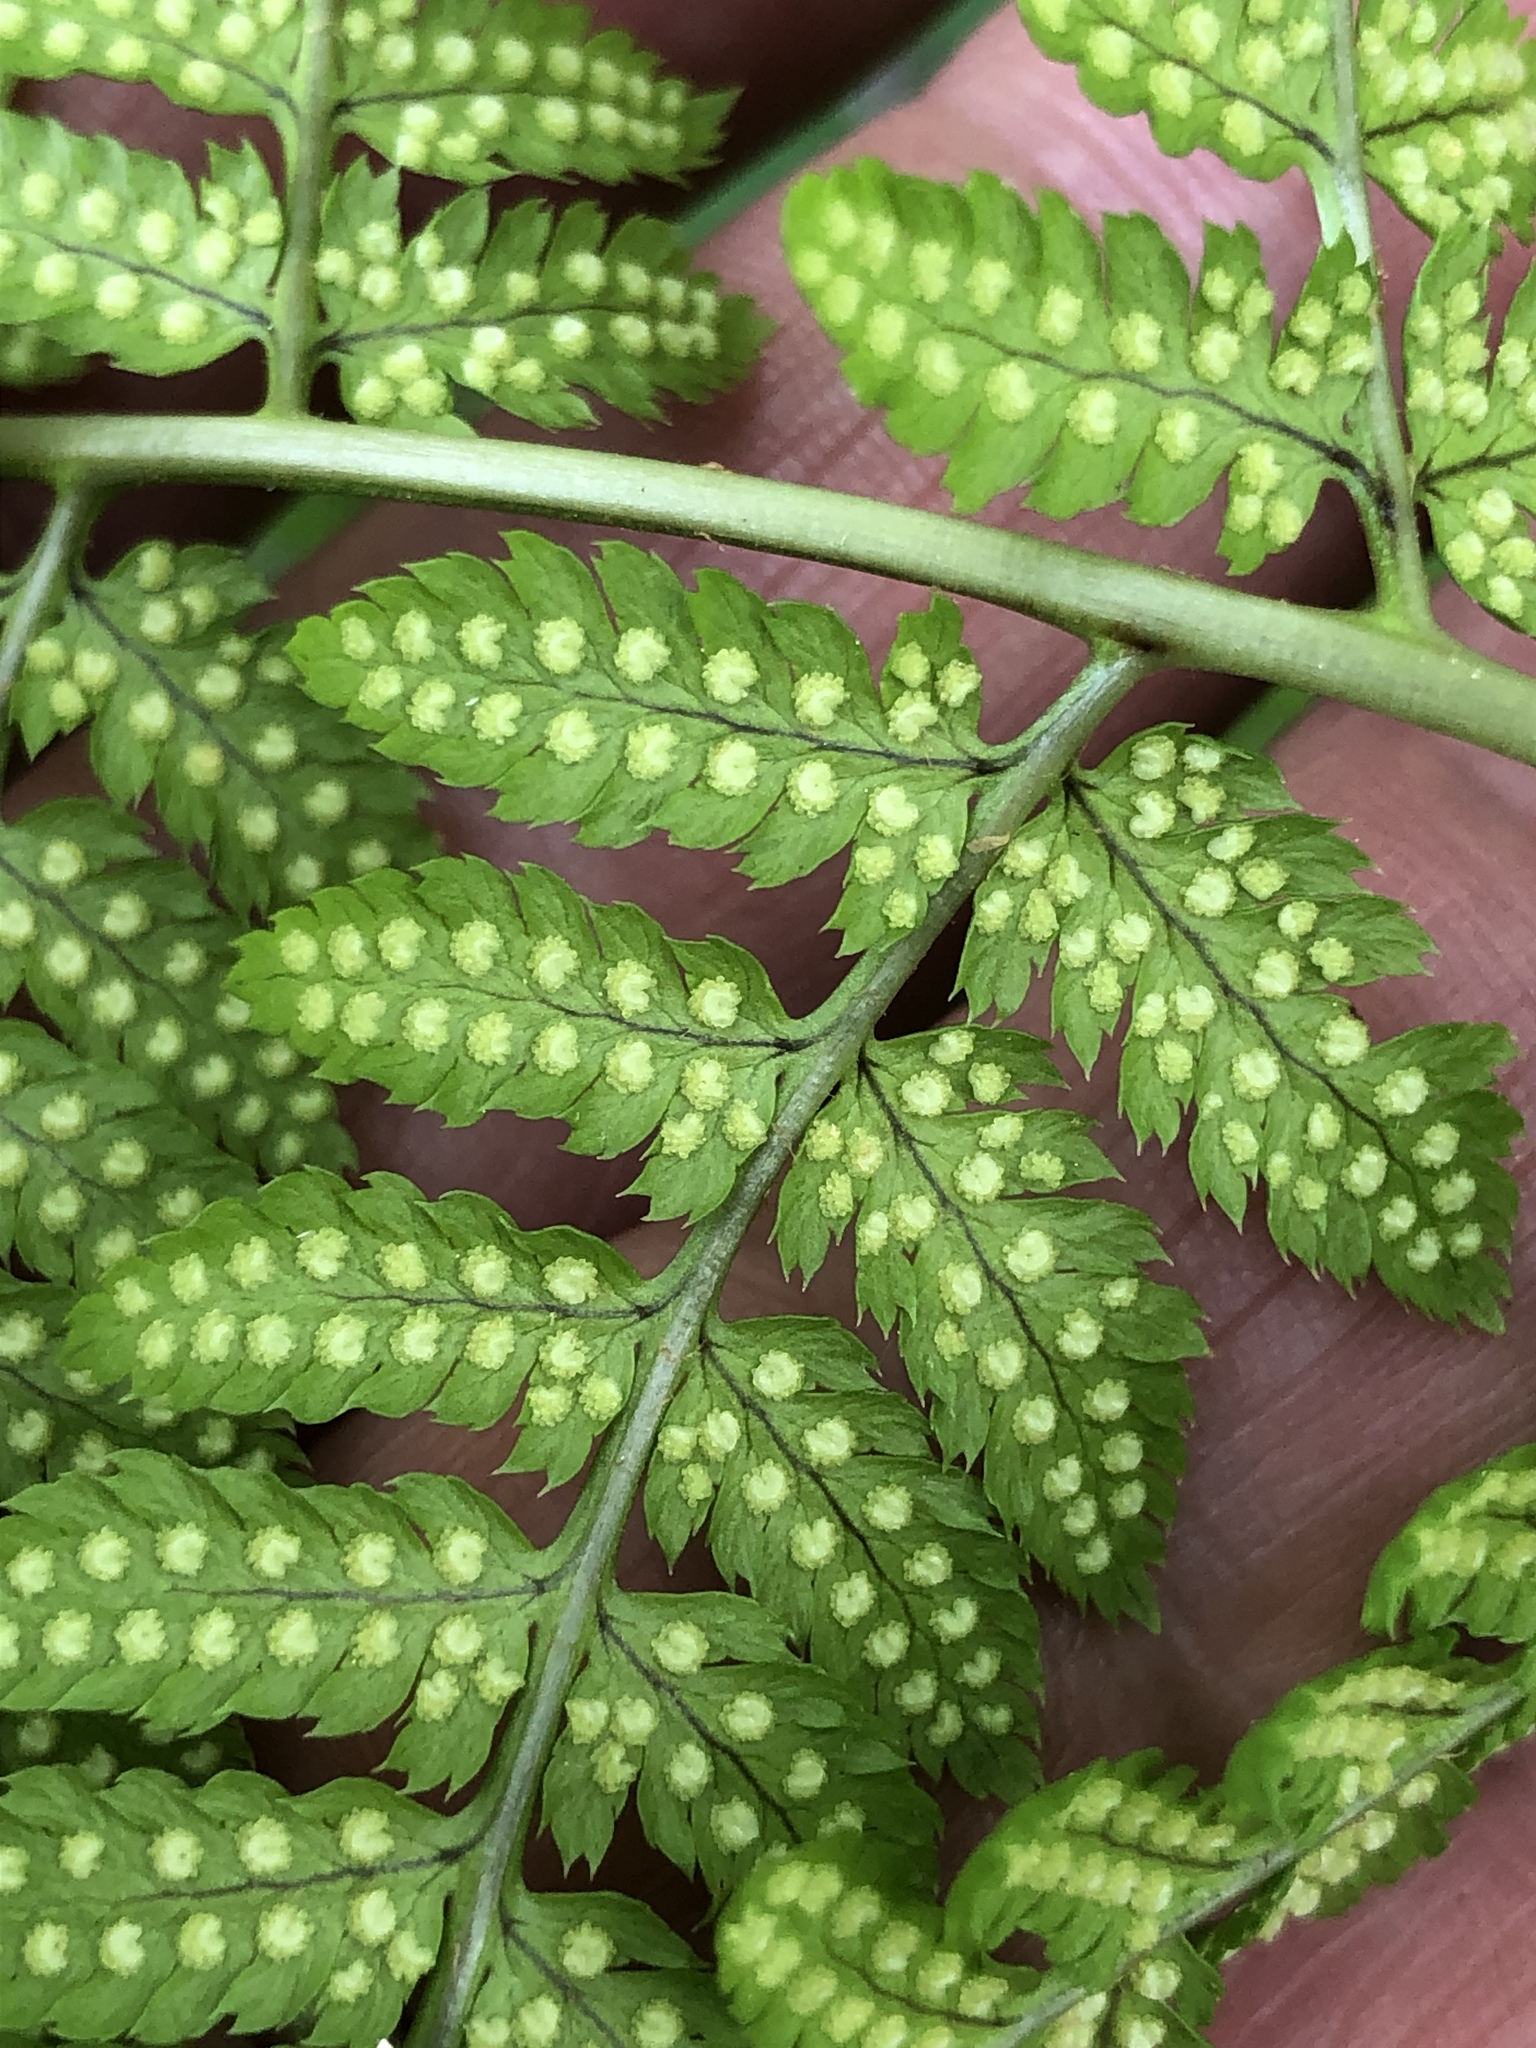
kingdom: Plantae
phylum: Tracheophyta
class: Polypodiopsida
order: Polypodiales
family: Dryopteridaceae
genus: Dryopteris
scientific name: Dryopteris carthusiana
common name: Narrow buckler-fern
